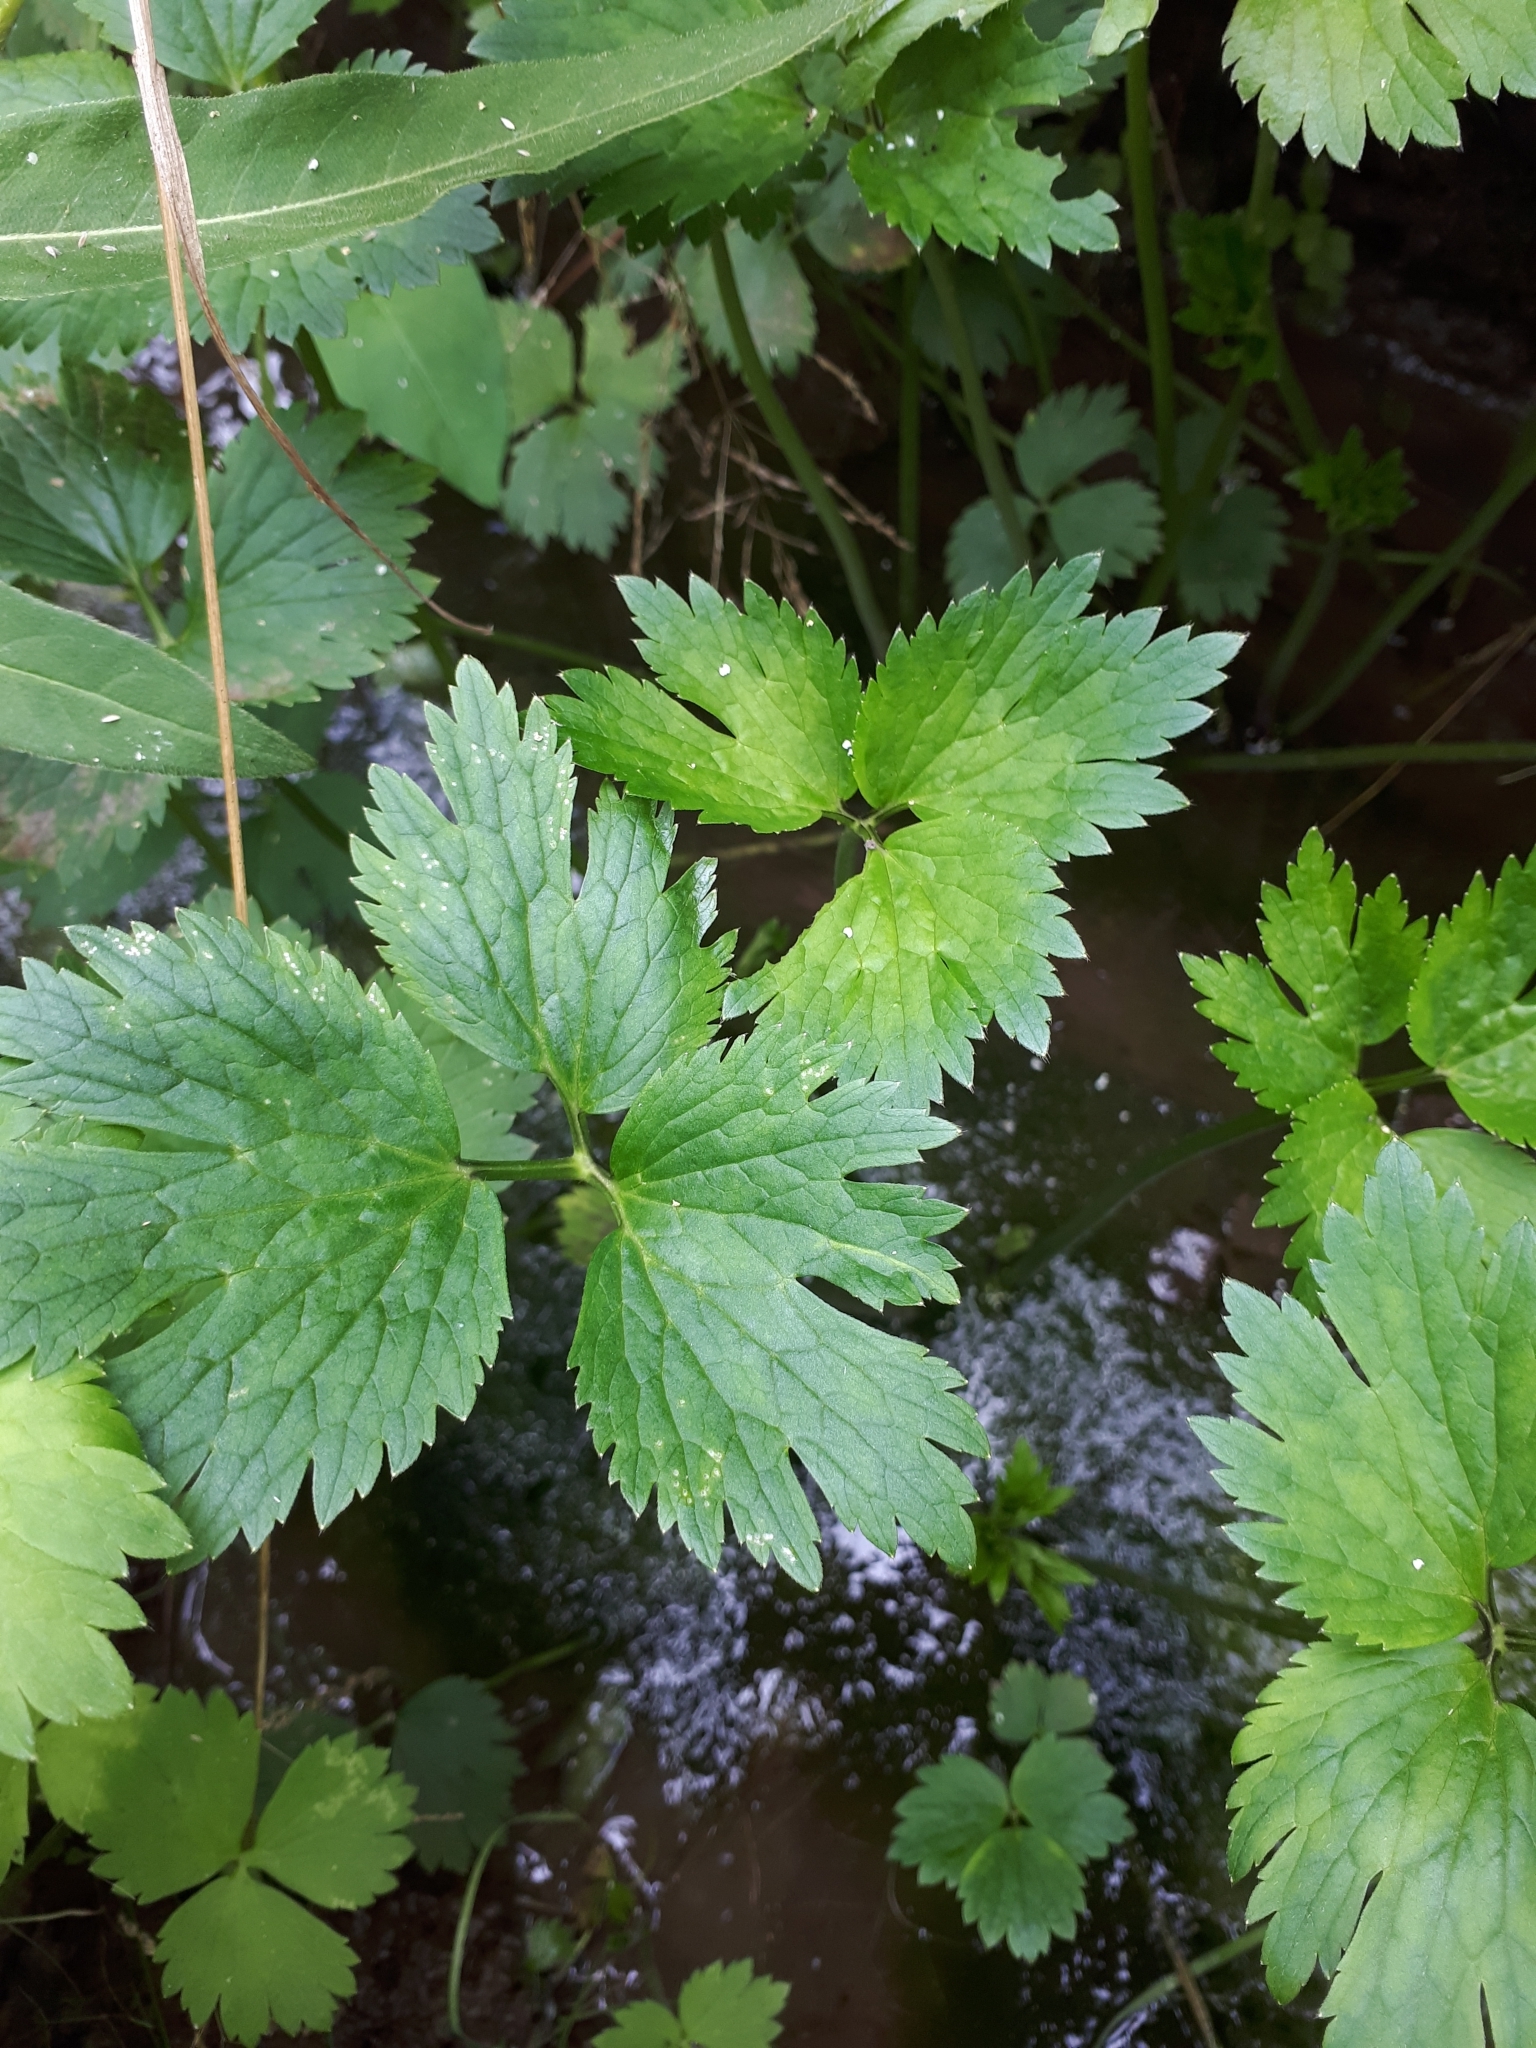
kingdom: Plantae
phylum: Tracheophyta
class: Magnoliopsida
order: Ranunculales
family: Ranunculaceae
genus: Ranunculus
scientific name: Ranunculus repens
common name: Creeping buttercup
